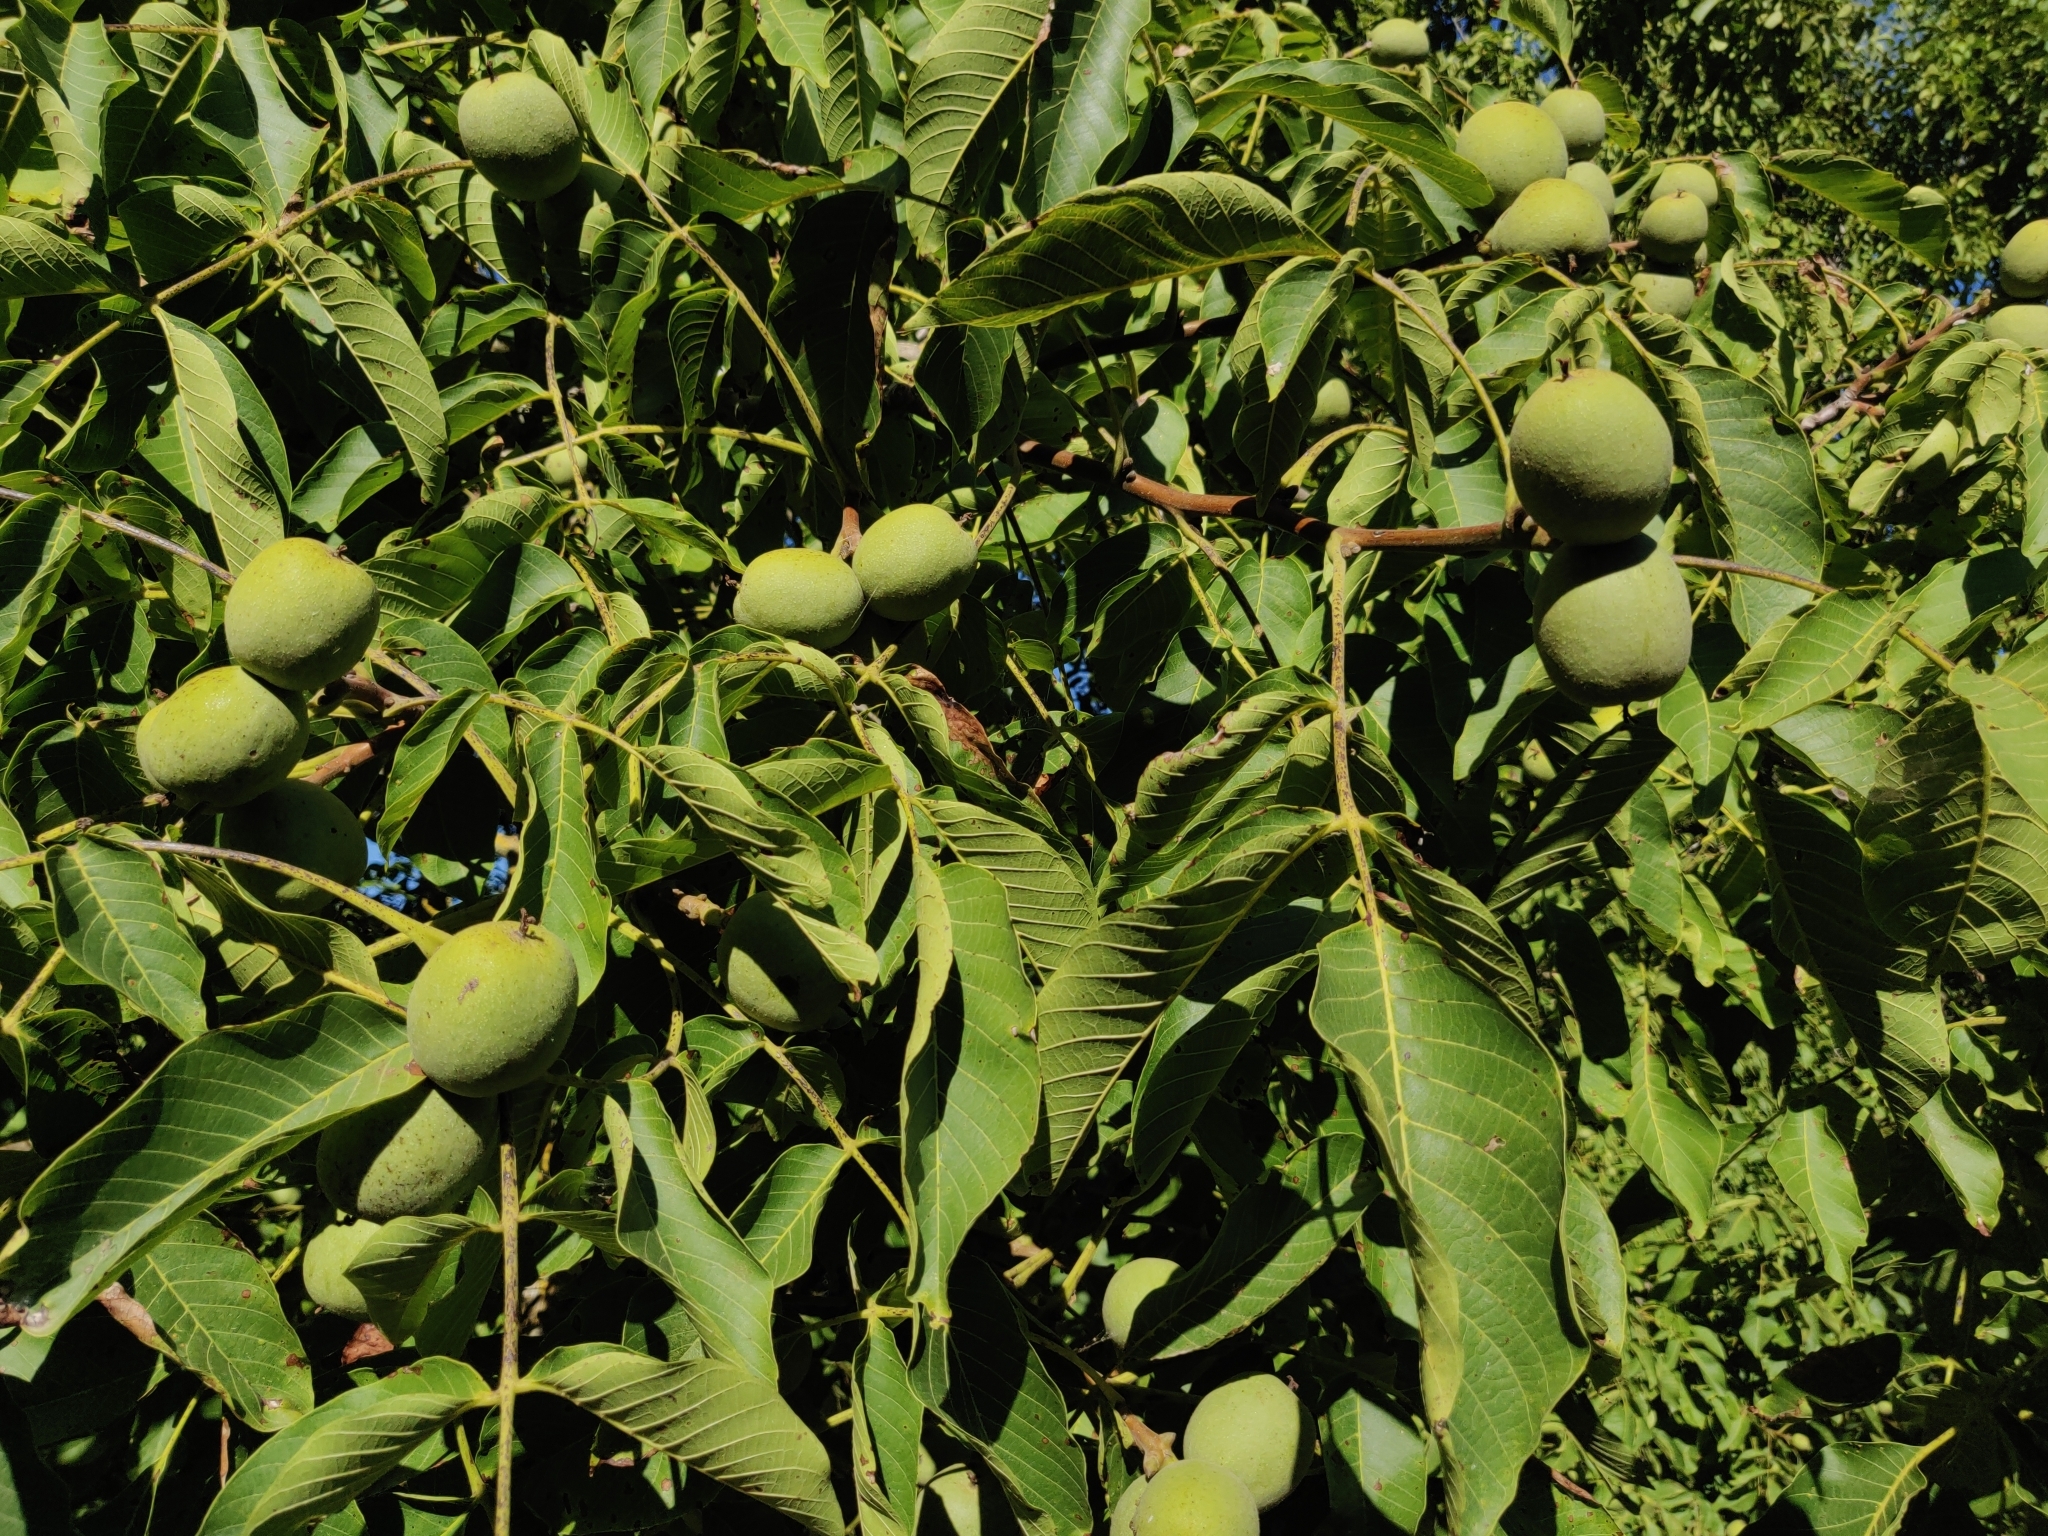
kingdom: Plantae
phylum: Tracheophyta
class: Magnoliopsida
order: Fagales
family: Juglandaceae
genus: Juglans
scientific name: Juglans regia
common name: Walnut
